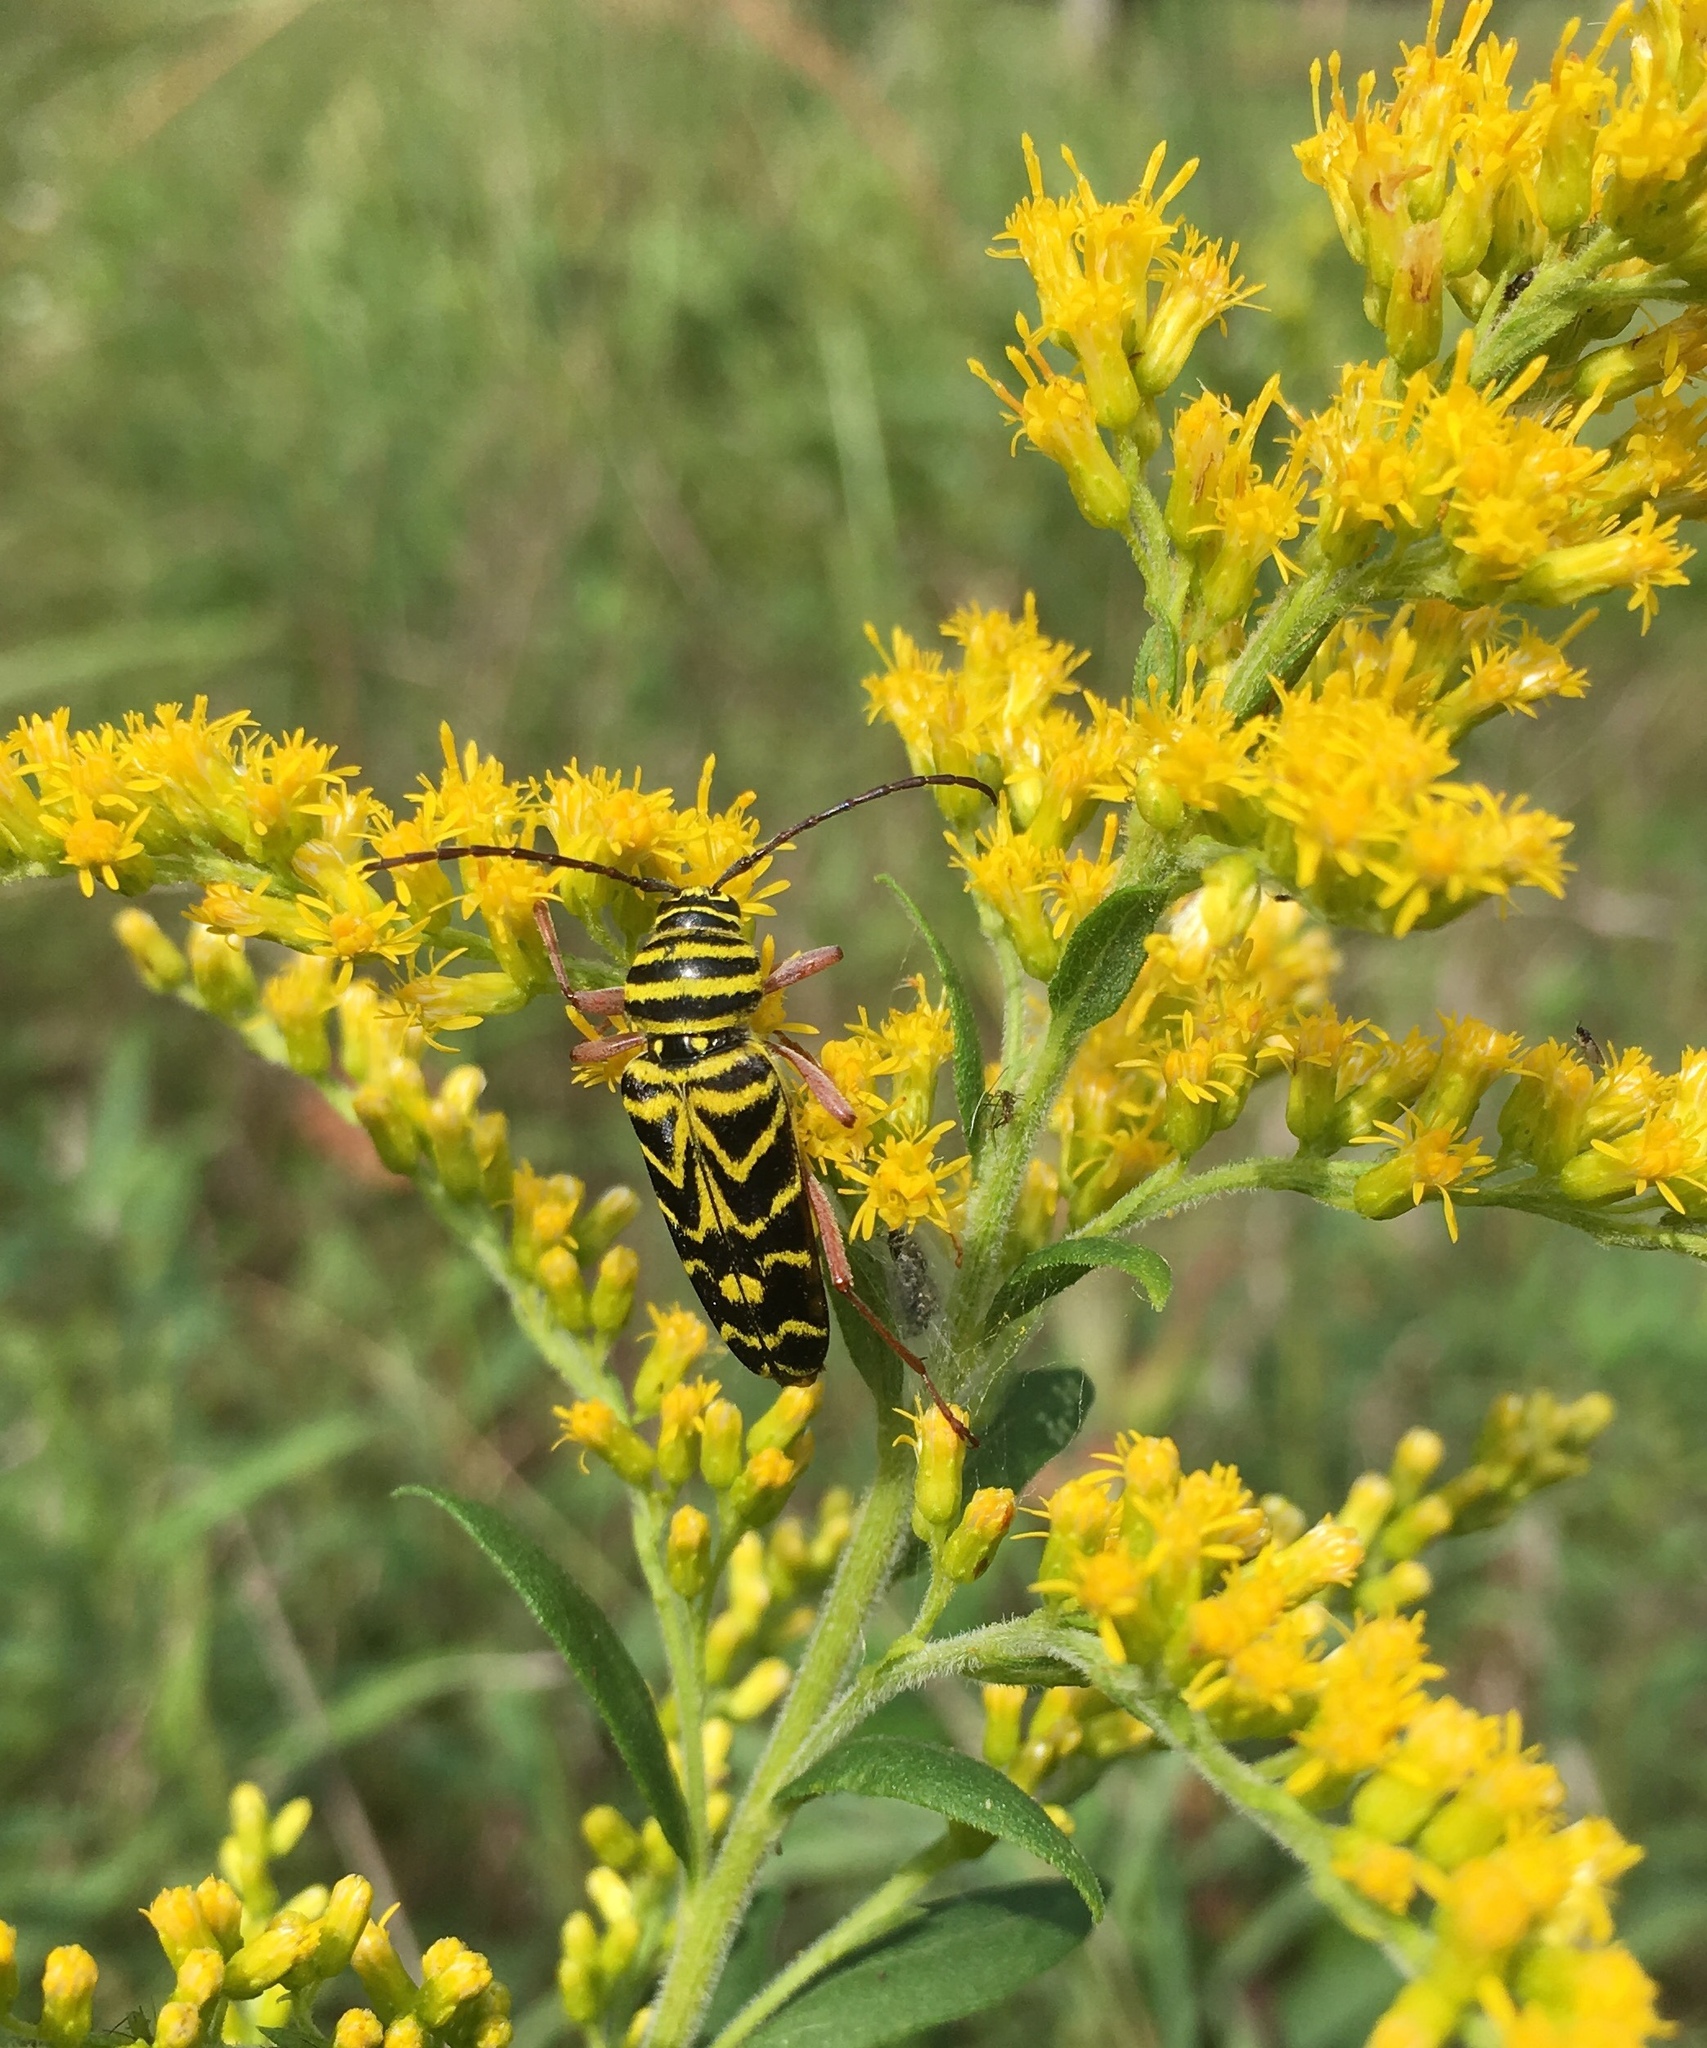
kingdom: Animalia
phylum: Arthropoda
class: Insecta
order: Coleoptera
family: Cerambycidae
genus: Megacyllene
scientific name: Megacyllene robiniae
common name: Locust borer
